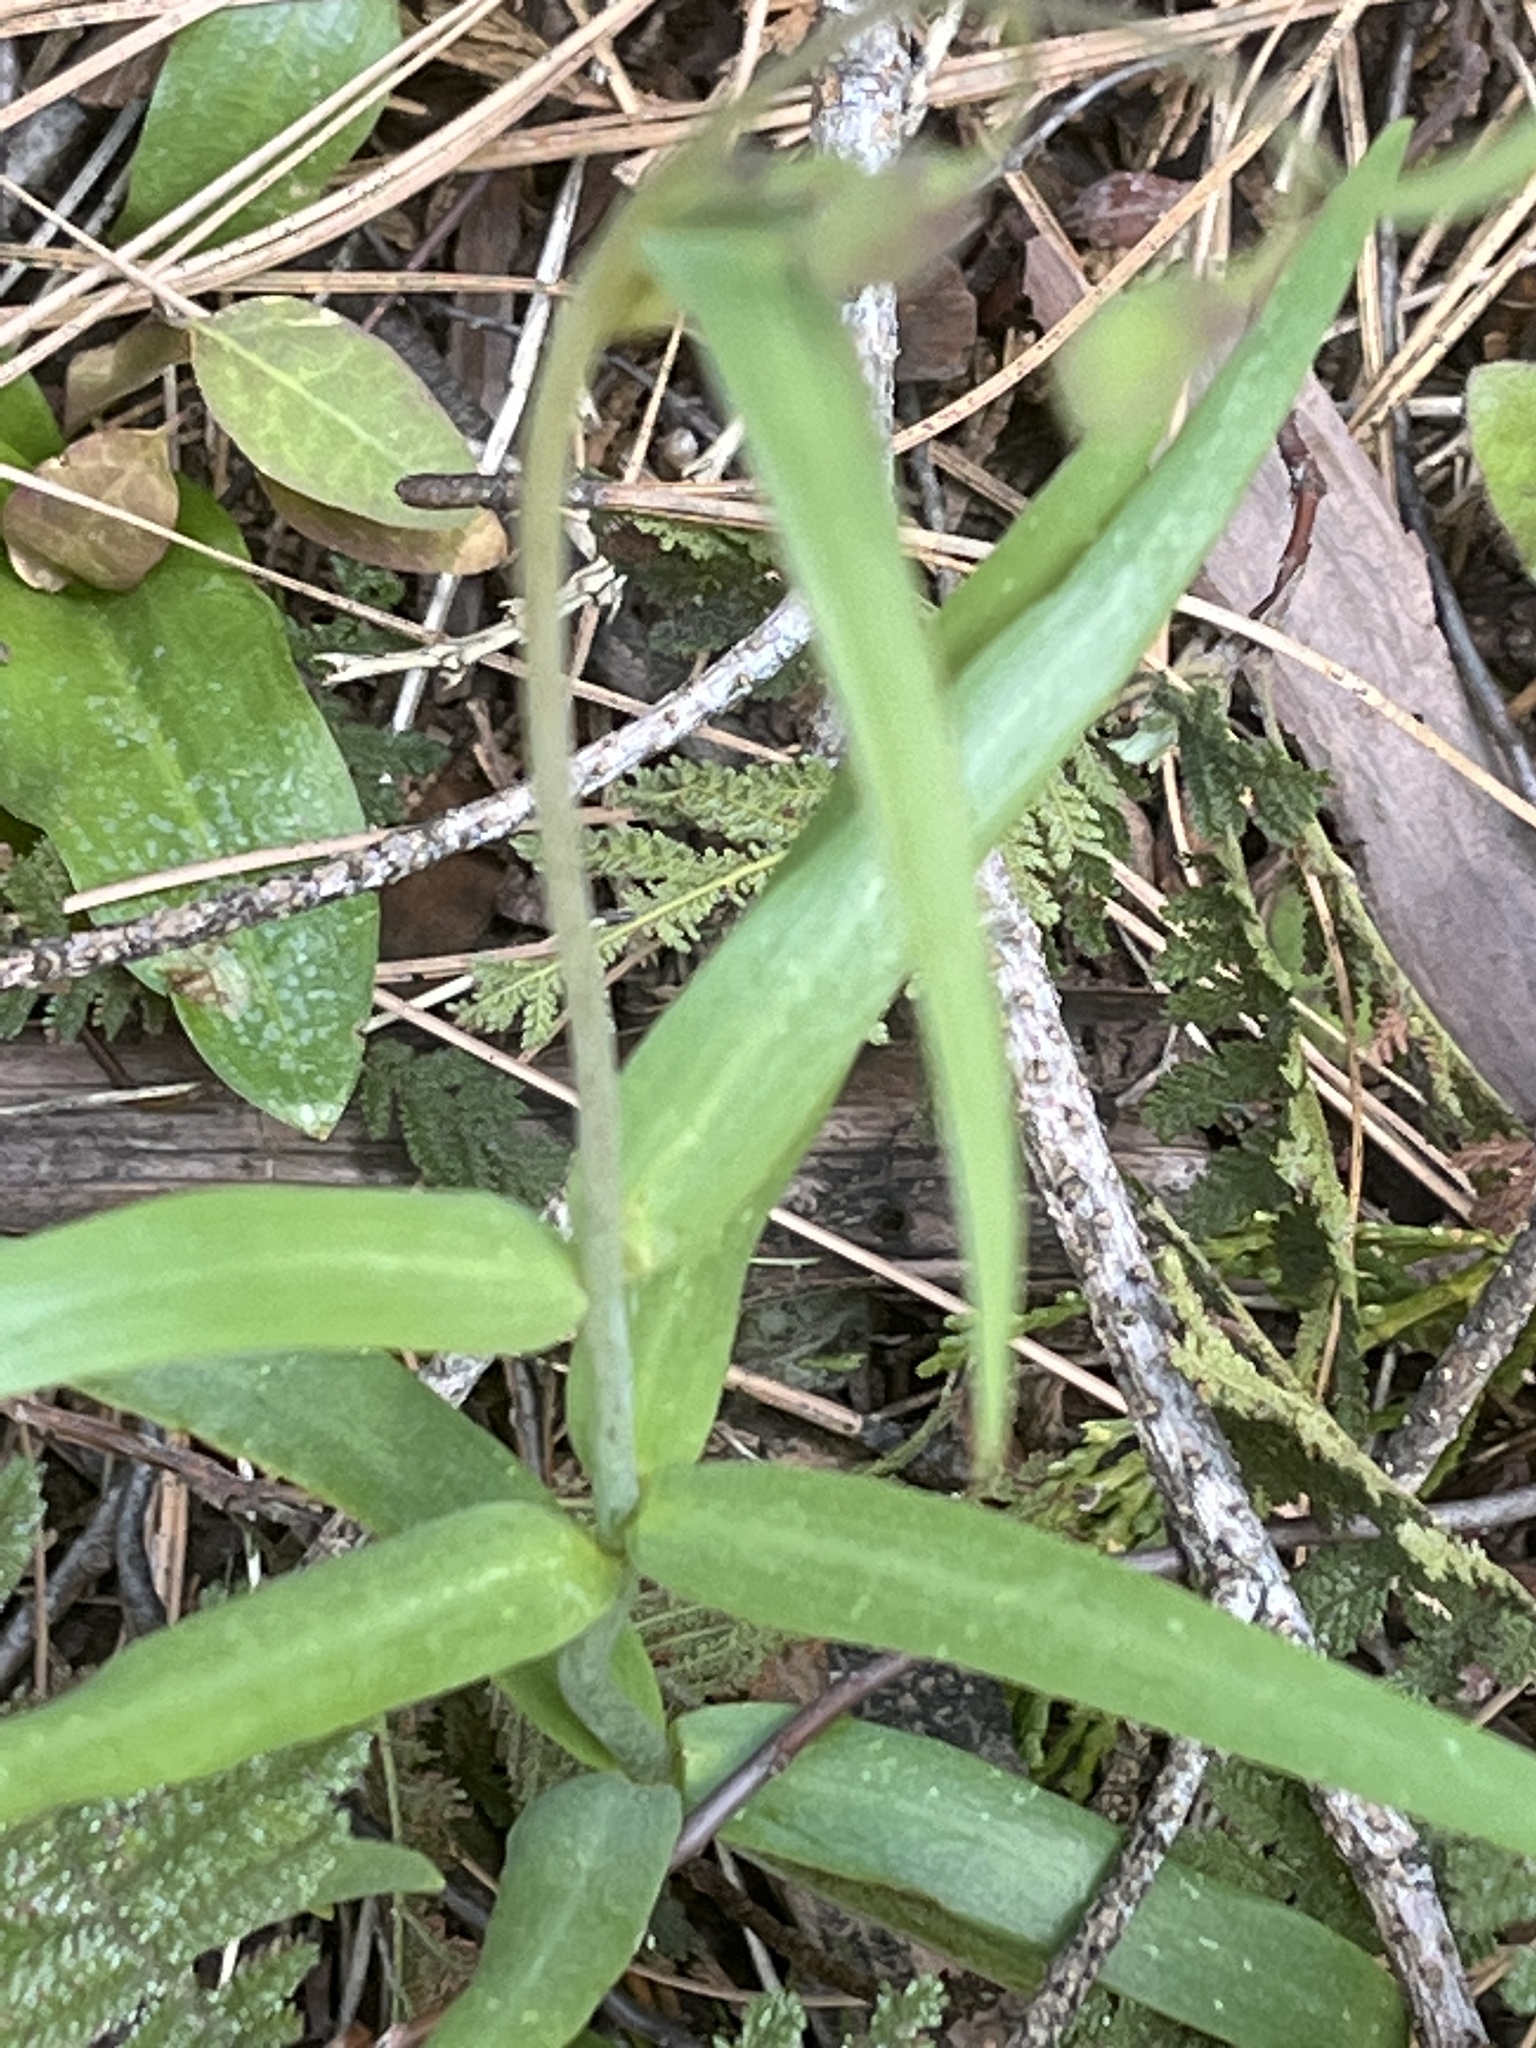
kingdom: Plantae
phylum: Tracheophyta
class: Liliopsida
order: Liliales
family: Liliaceae
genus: Fritillaria
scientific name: Fritillaria micrantha
